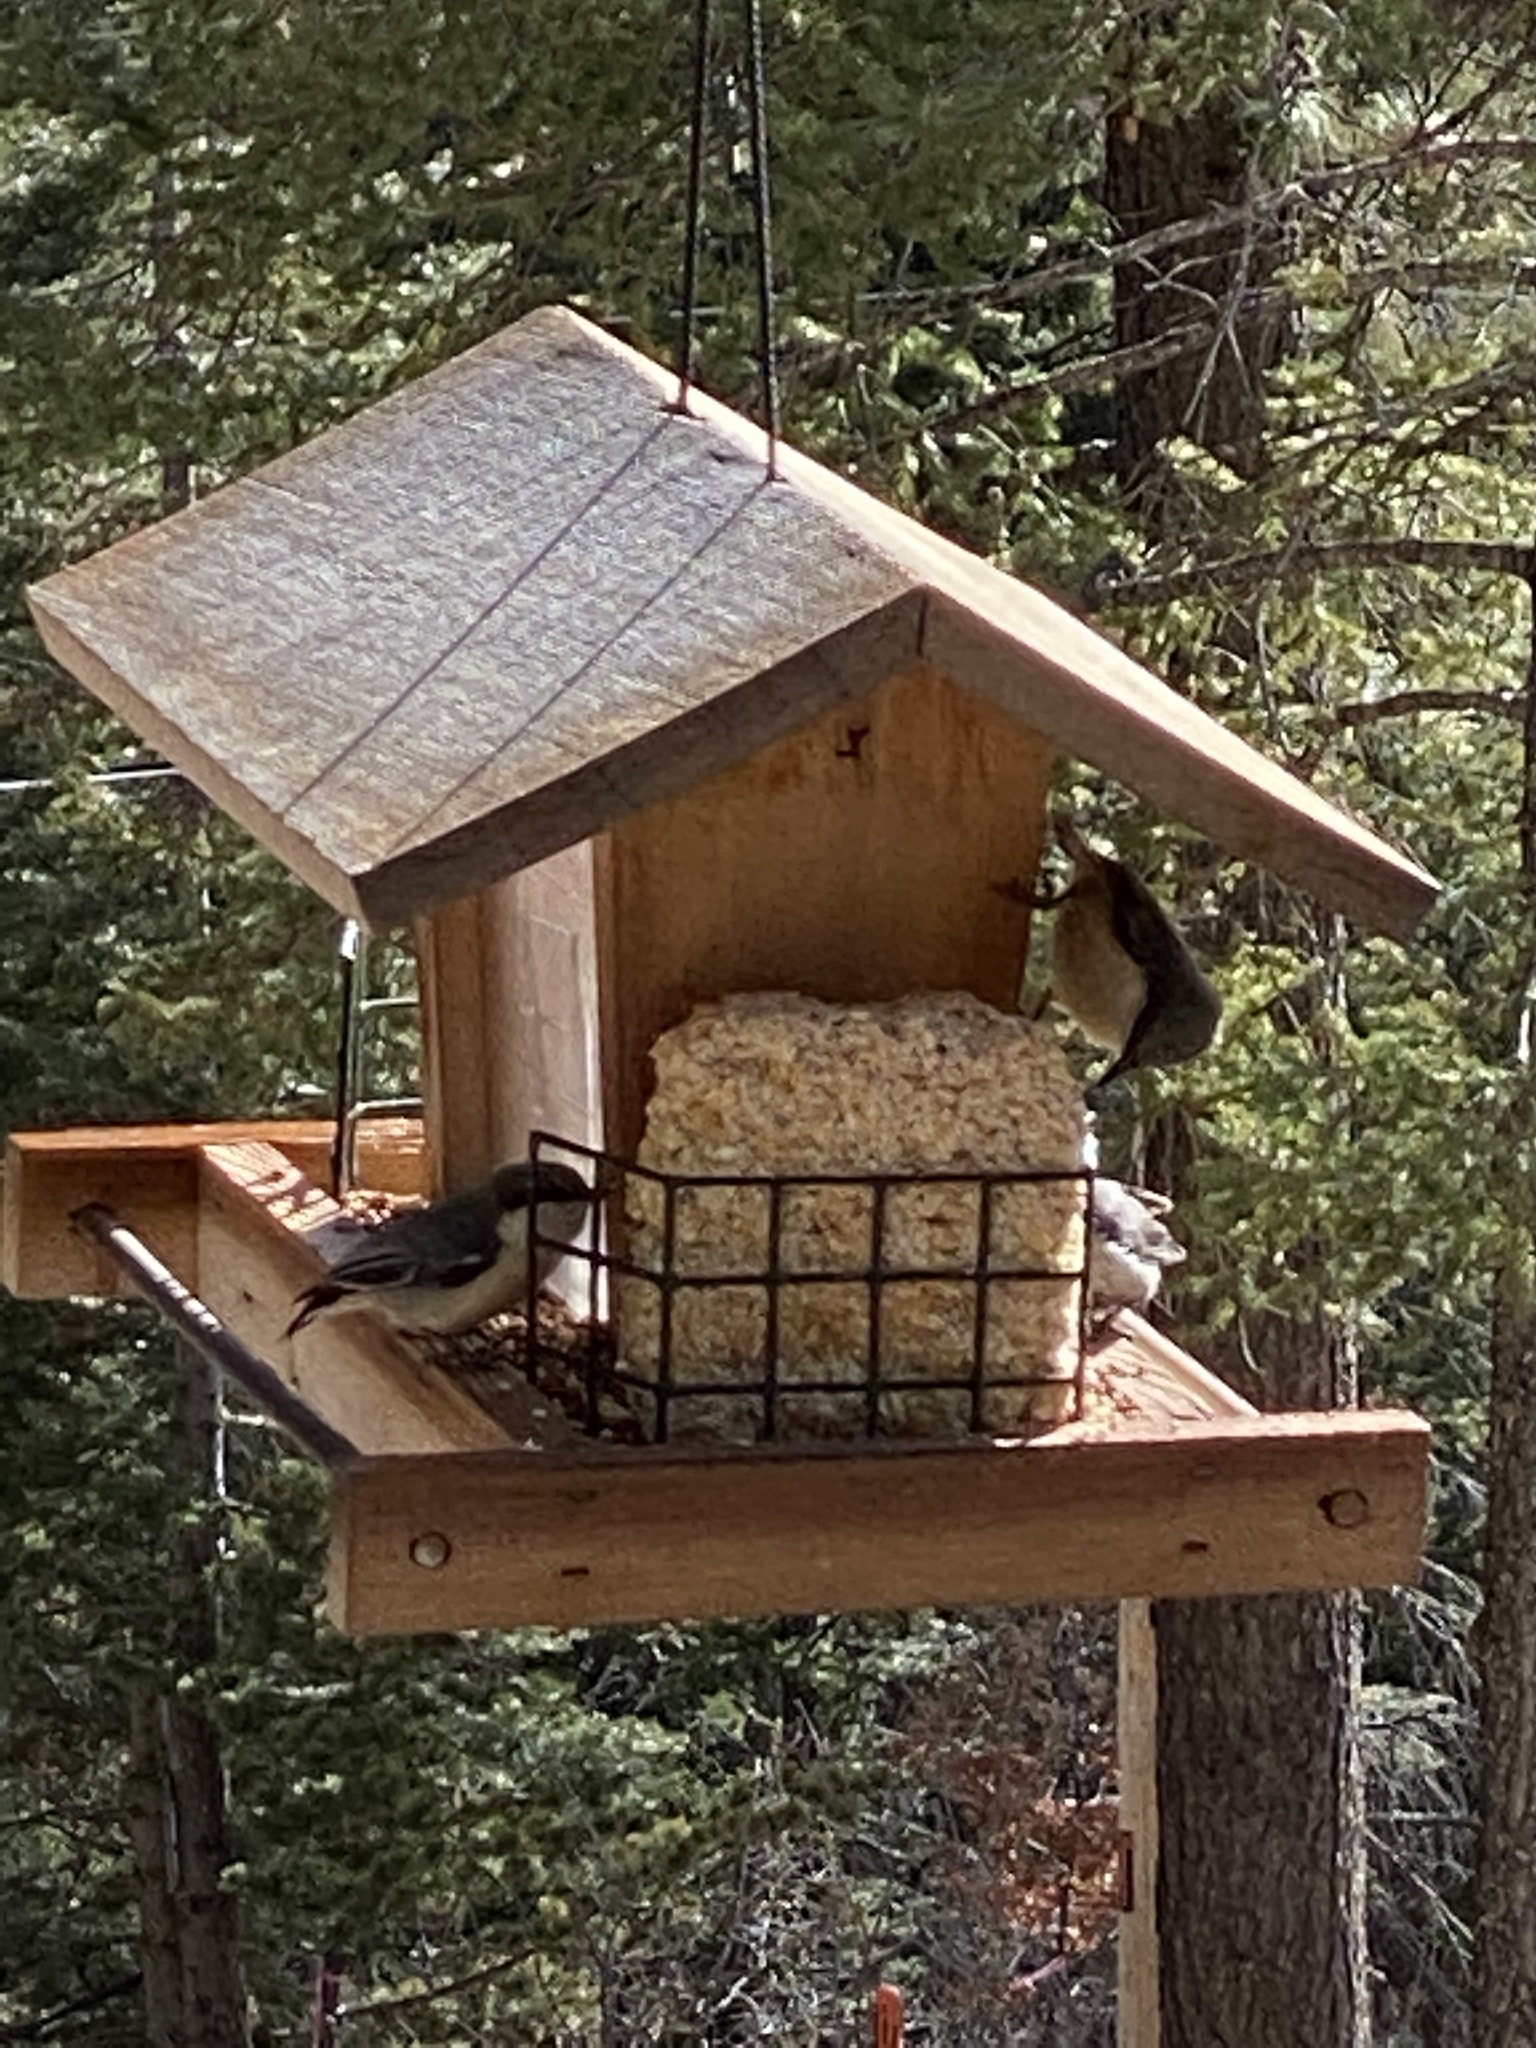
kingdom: Animalia
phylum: Chordata
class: Aves
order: Passeriformes
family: Sittidae
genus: Sitta
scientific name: Sitta pygmaea
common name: Pygmy nuthatch
